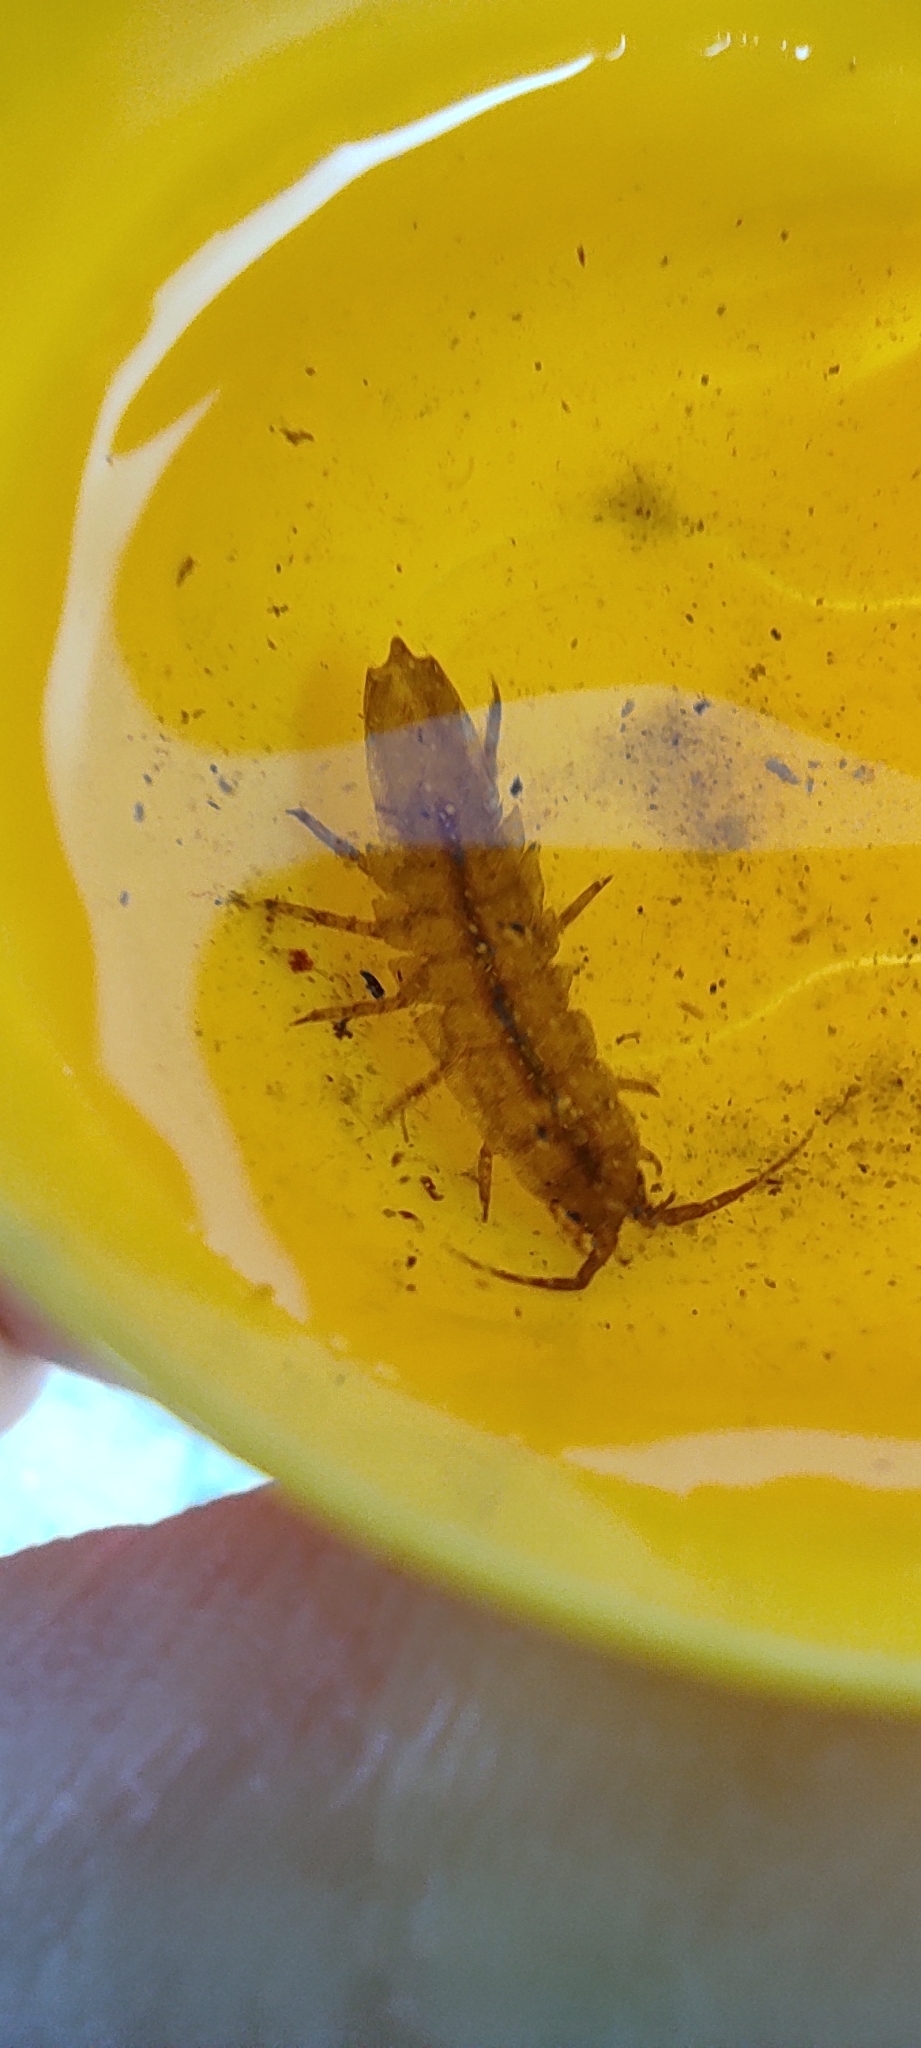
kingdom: Animalia
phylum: Arthropoda
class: Malacostraca
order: Isopoda
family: Idoteidae
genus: Idotea
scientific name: Idotea balthica
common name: Baltic isopod
